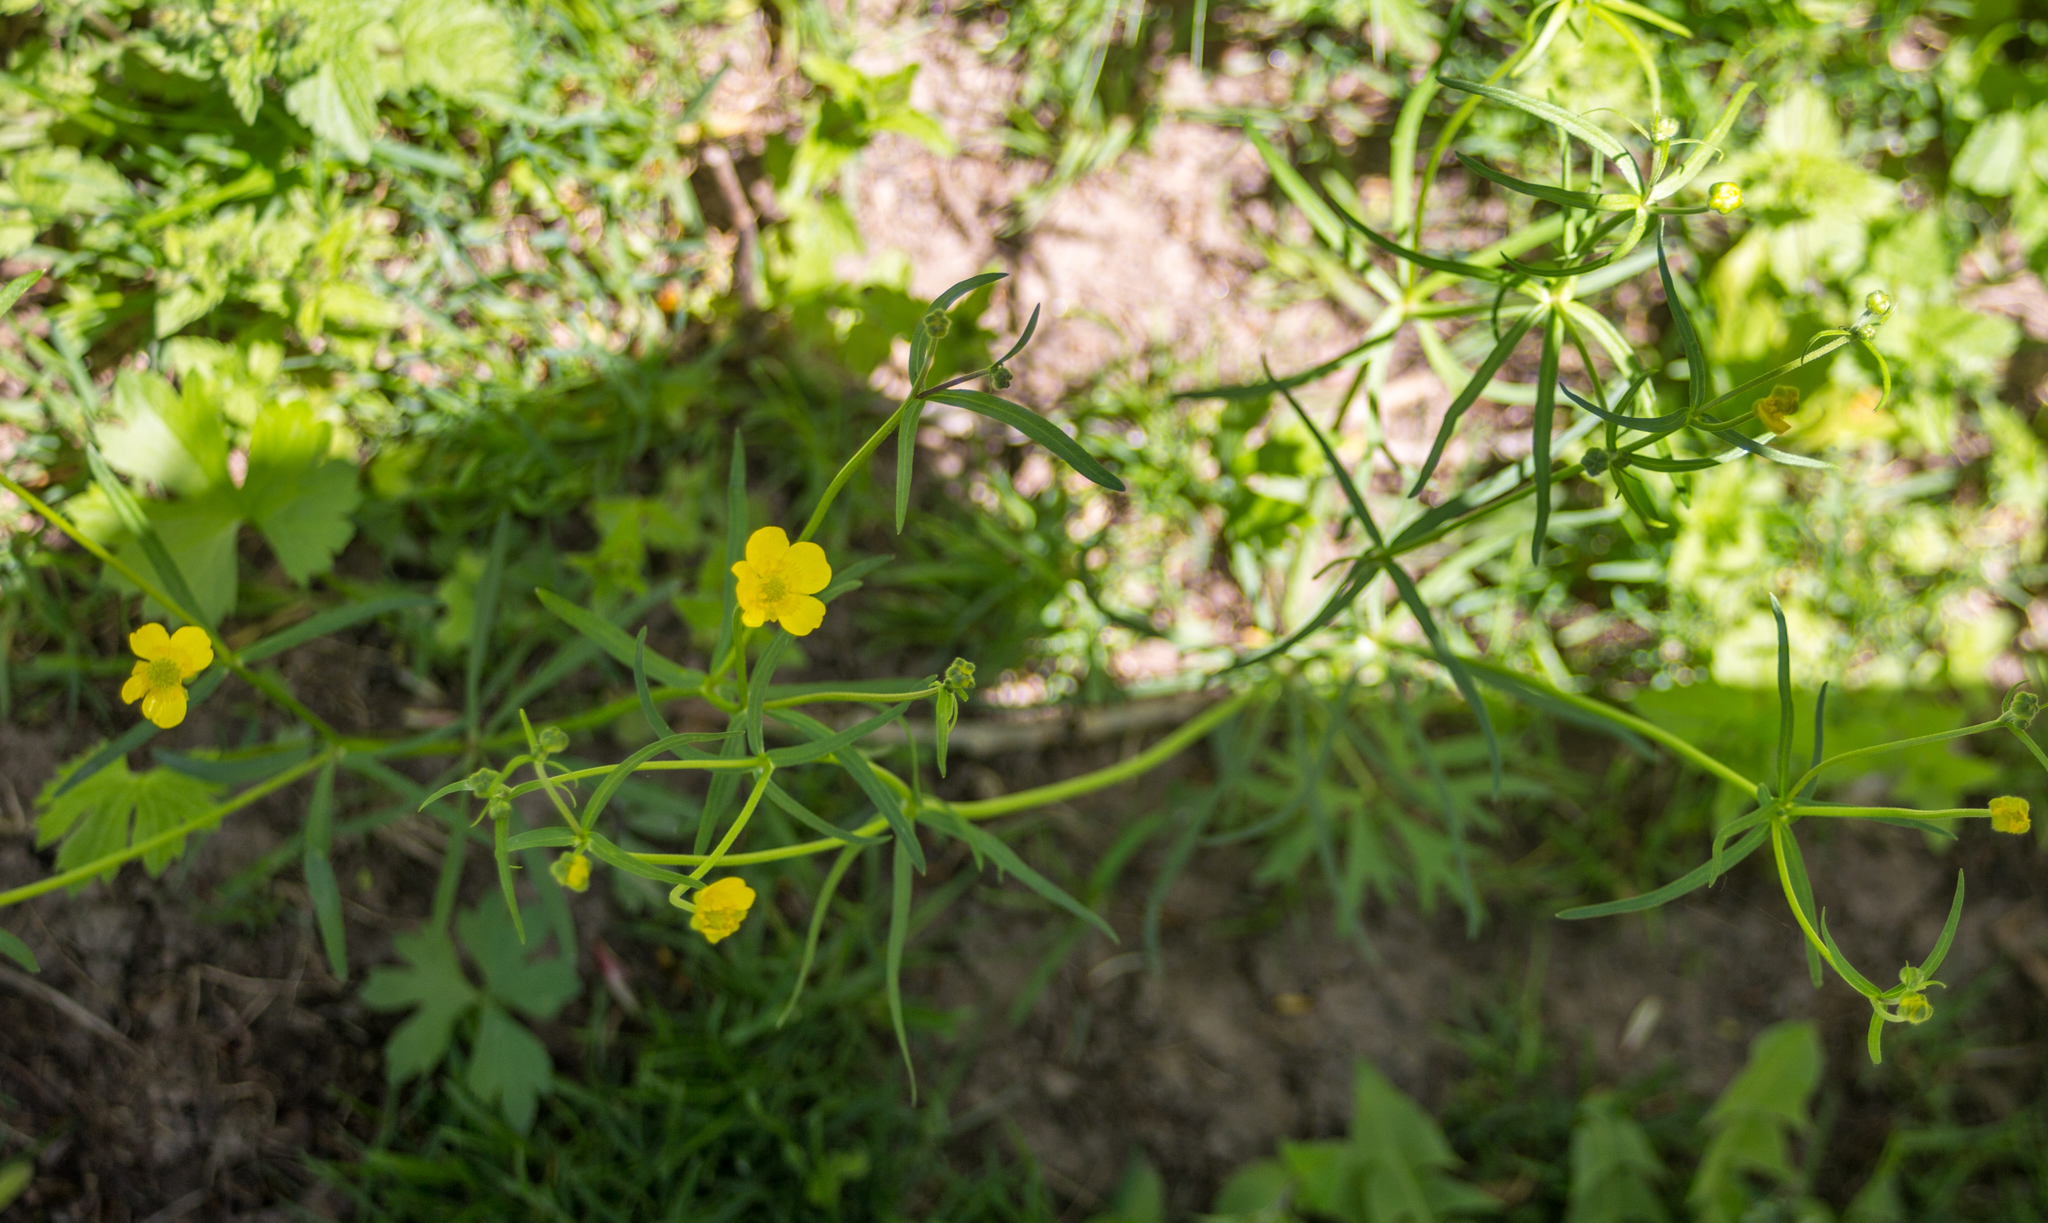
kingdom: Plantae
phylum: Tracheophyta
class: Magnoliopsida
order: Ranunculales
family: Ranunculaceae
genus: Ranunculus
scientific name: Ranunculus auricomus
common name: Goldilocks buttercup
